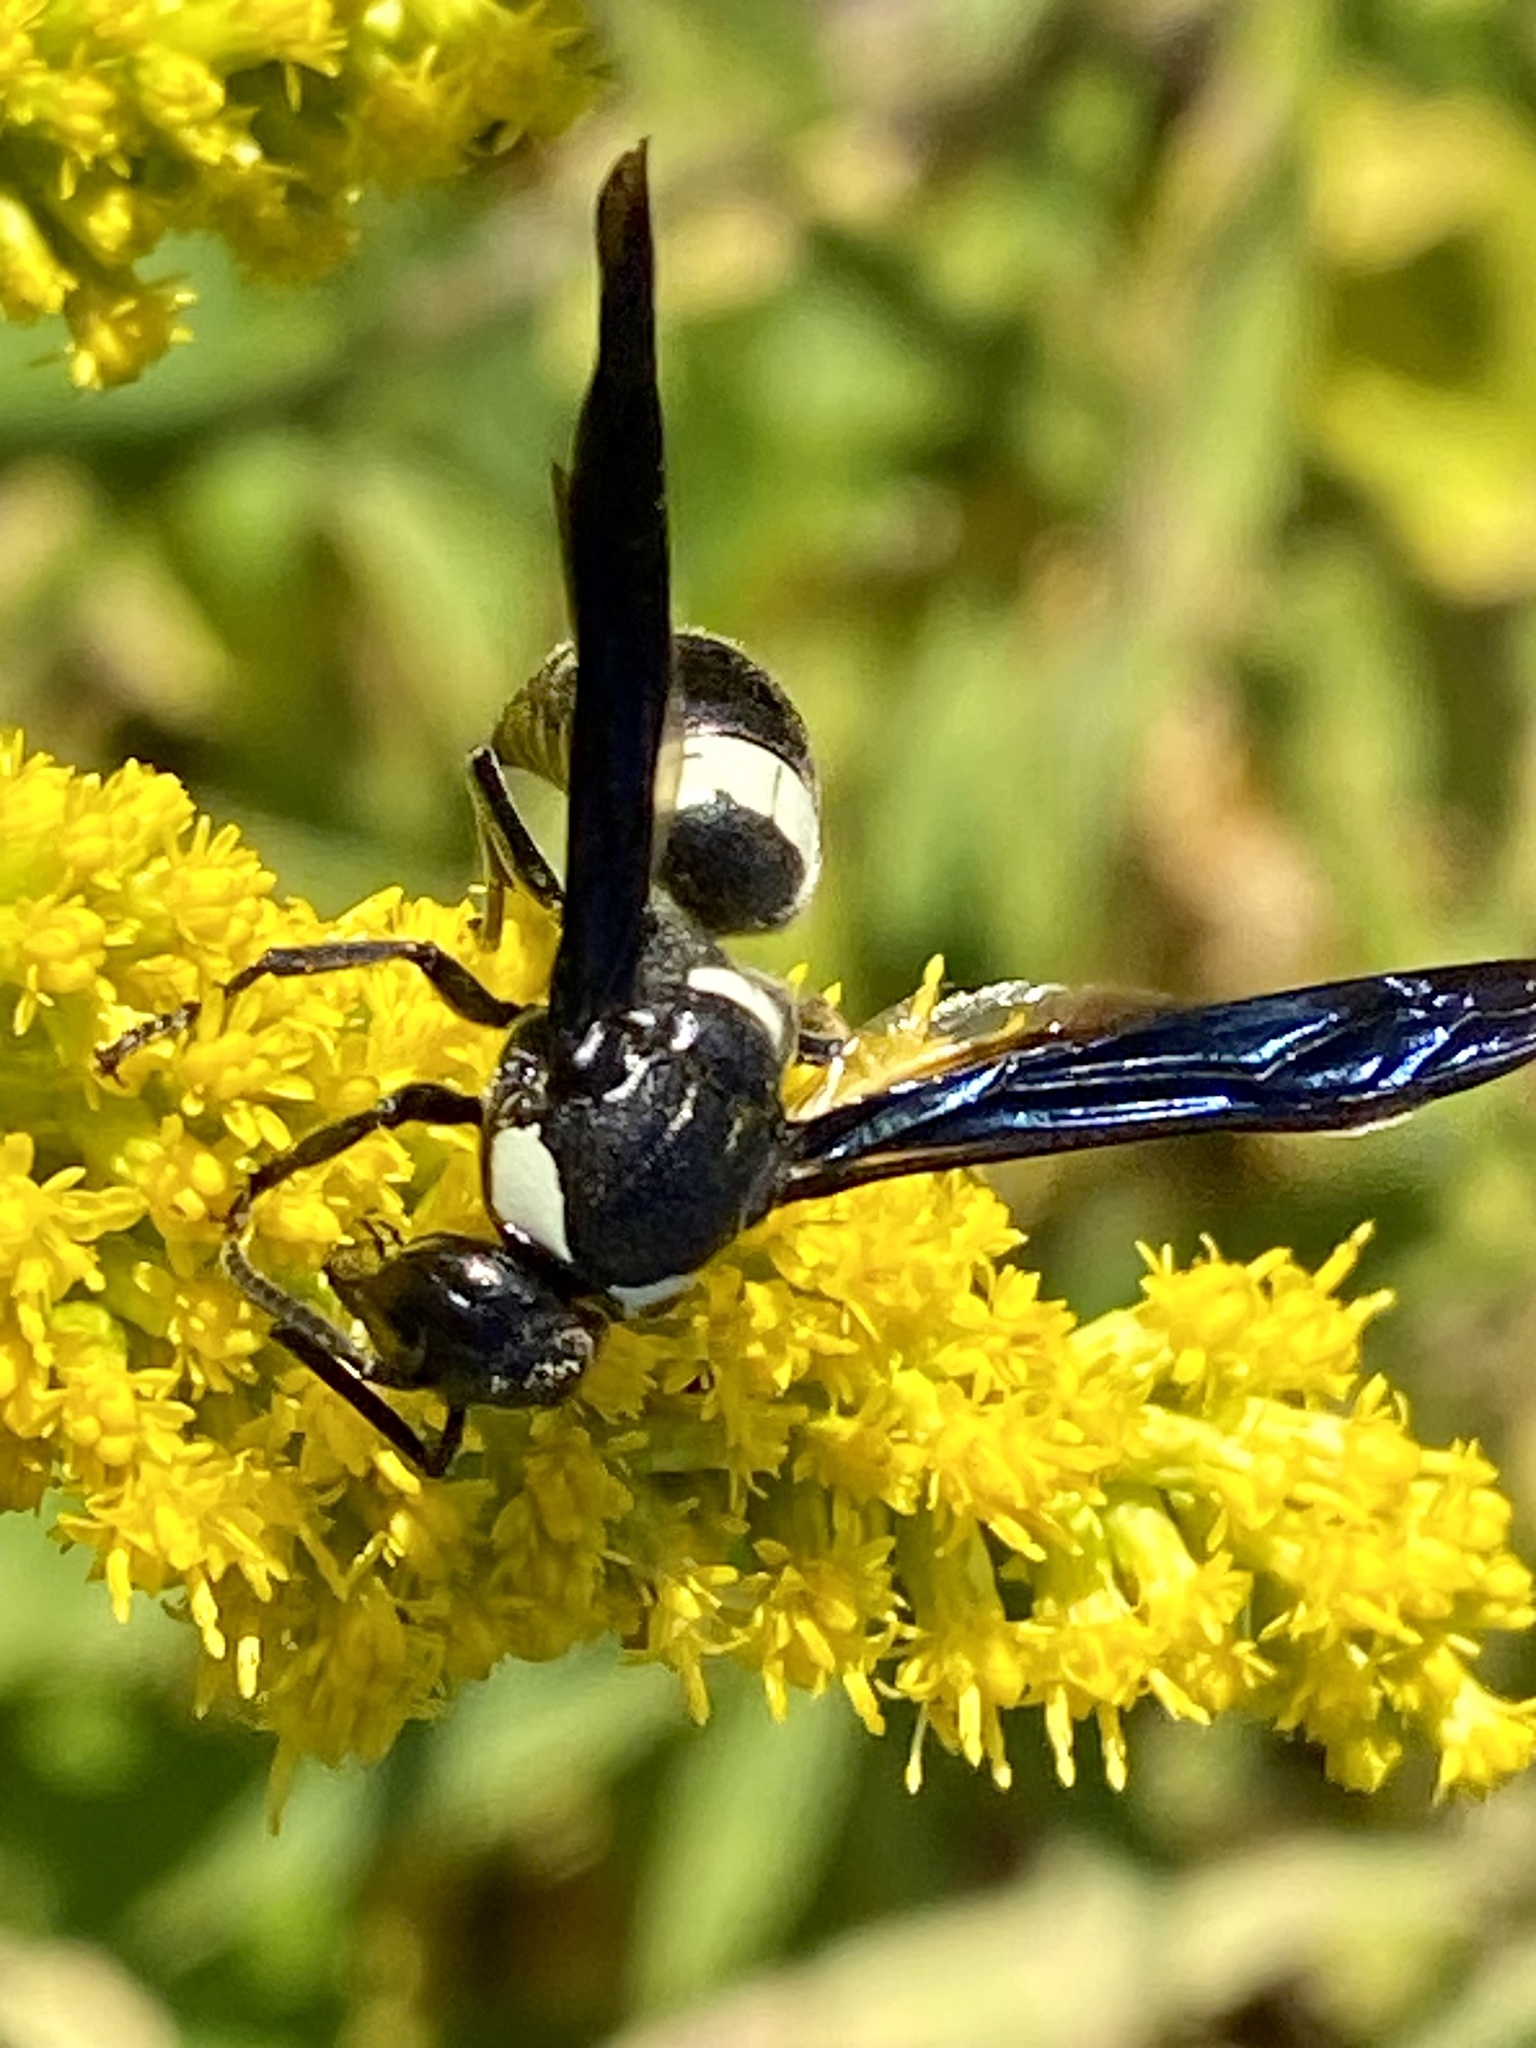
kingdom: Animalia
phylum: Arthropoda
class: Insecta
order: Hymenoptera
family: Eumenidae
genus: Monobia
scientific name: Monobia quadridens
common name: Four-toothed mason wasp
